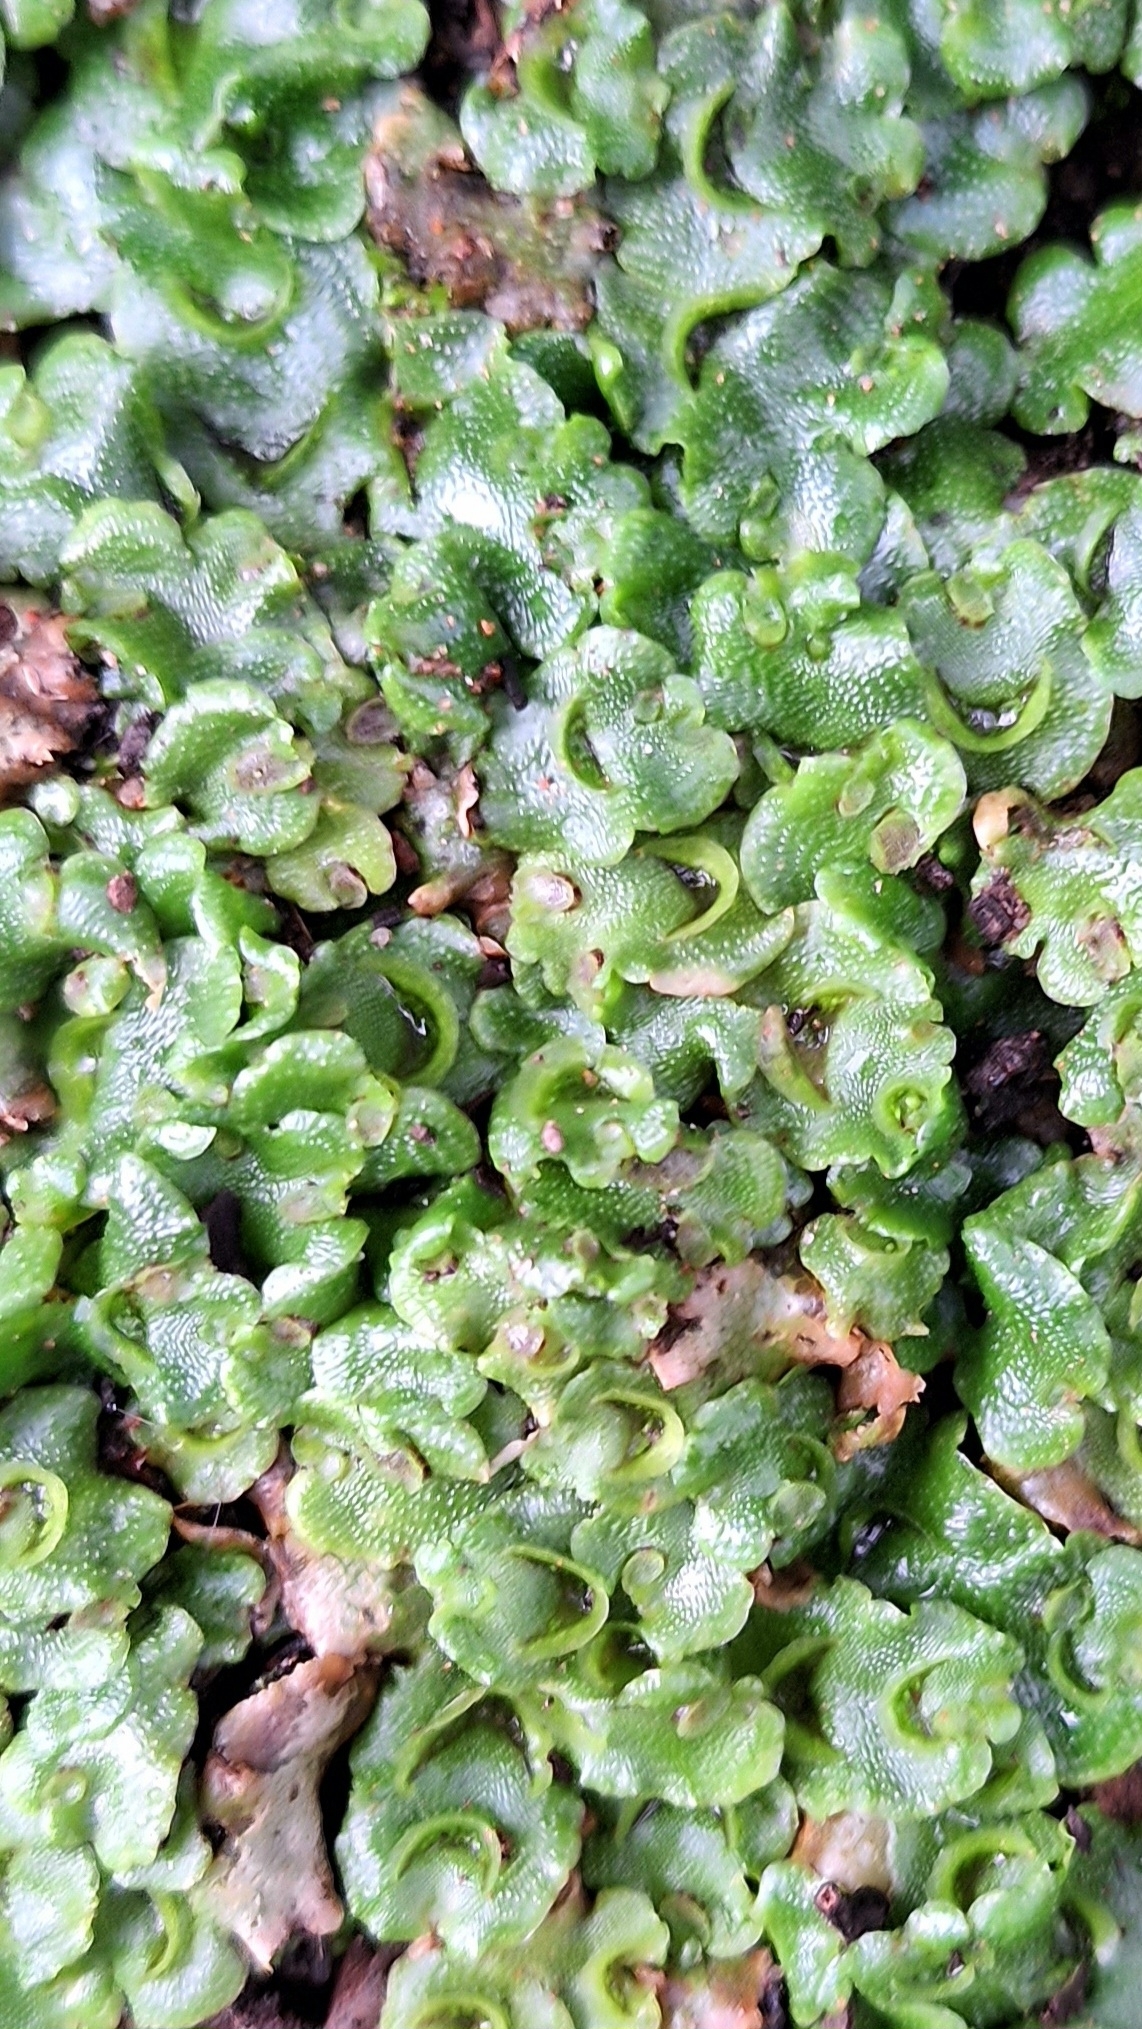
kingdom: Plantae
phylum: Marchantiophyta
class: Marchantiopsida
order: Lunulariales
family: Lunulariaceae
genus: Lunularia
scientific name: Lunularia cruciata
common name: Crescent-cup liverwort
